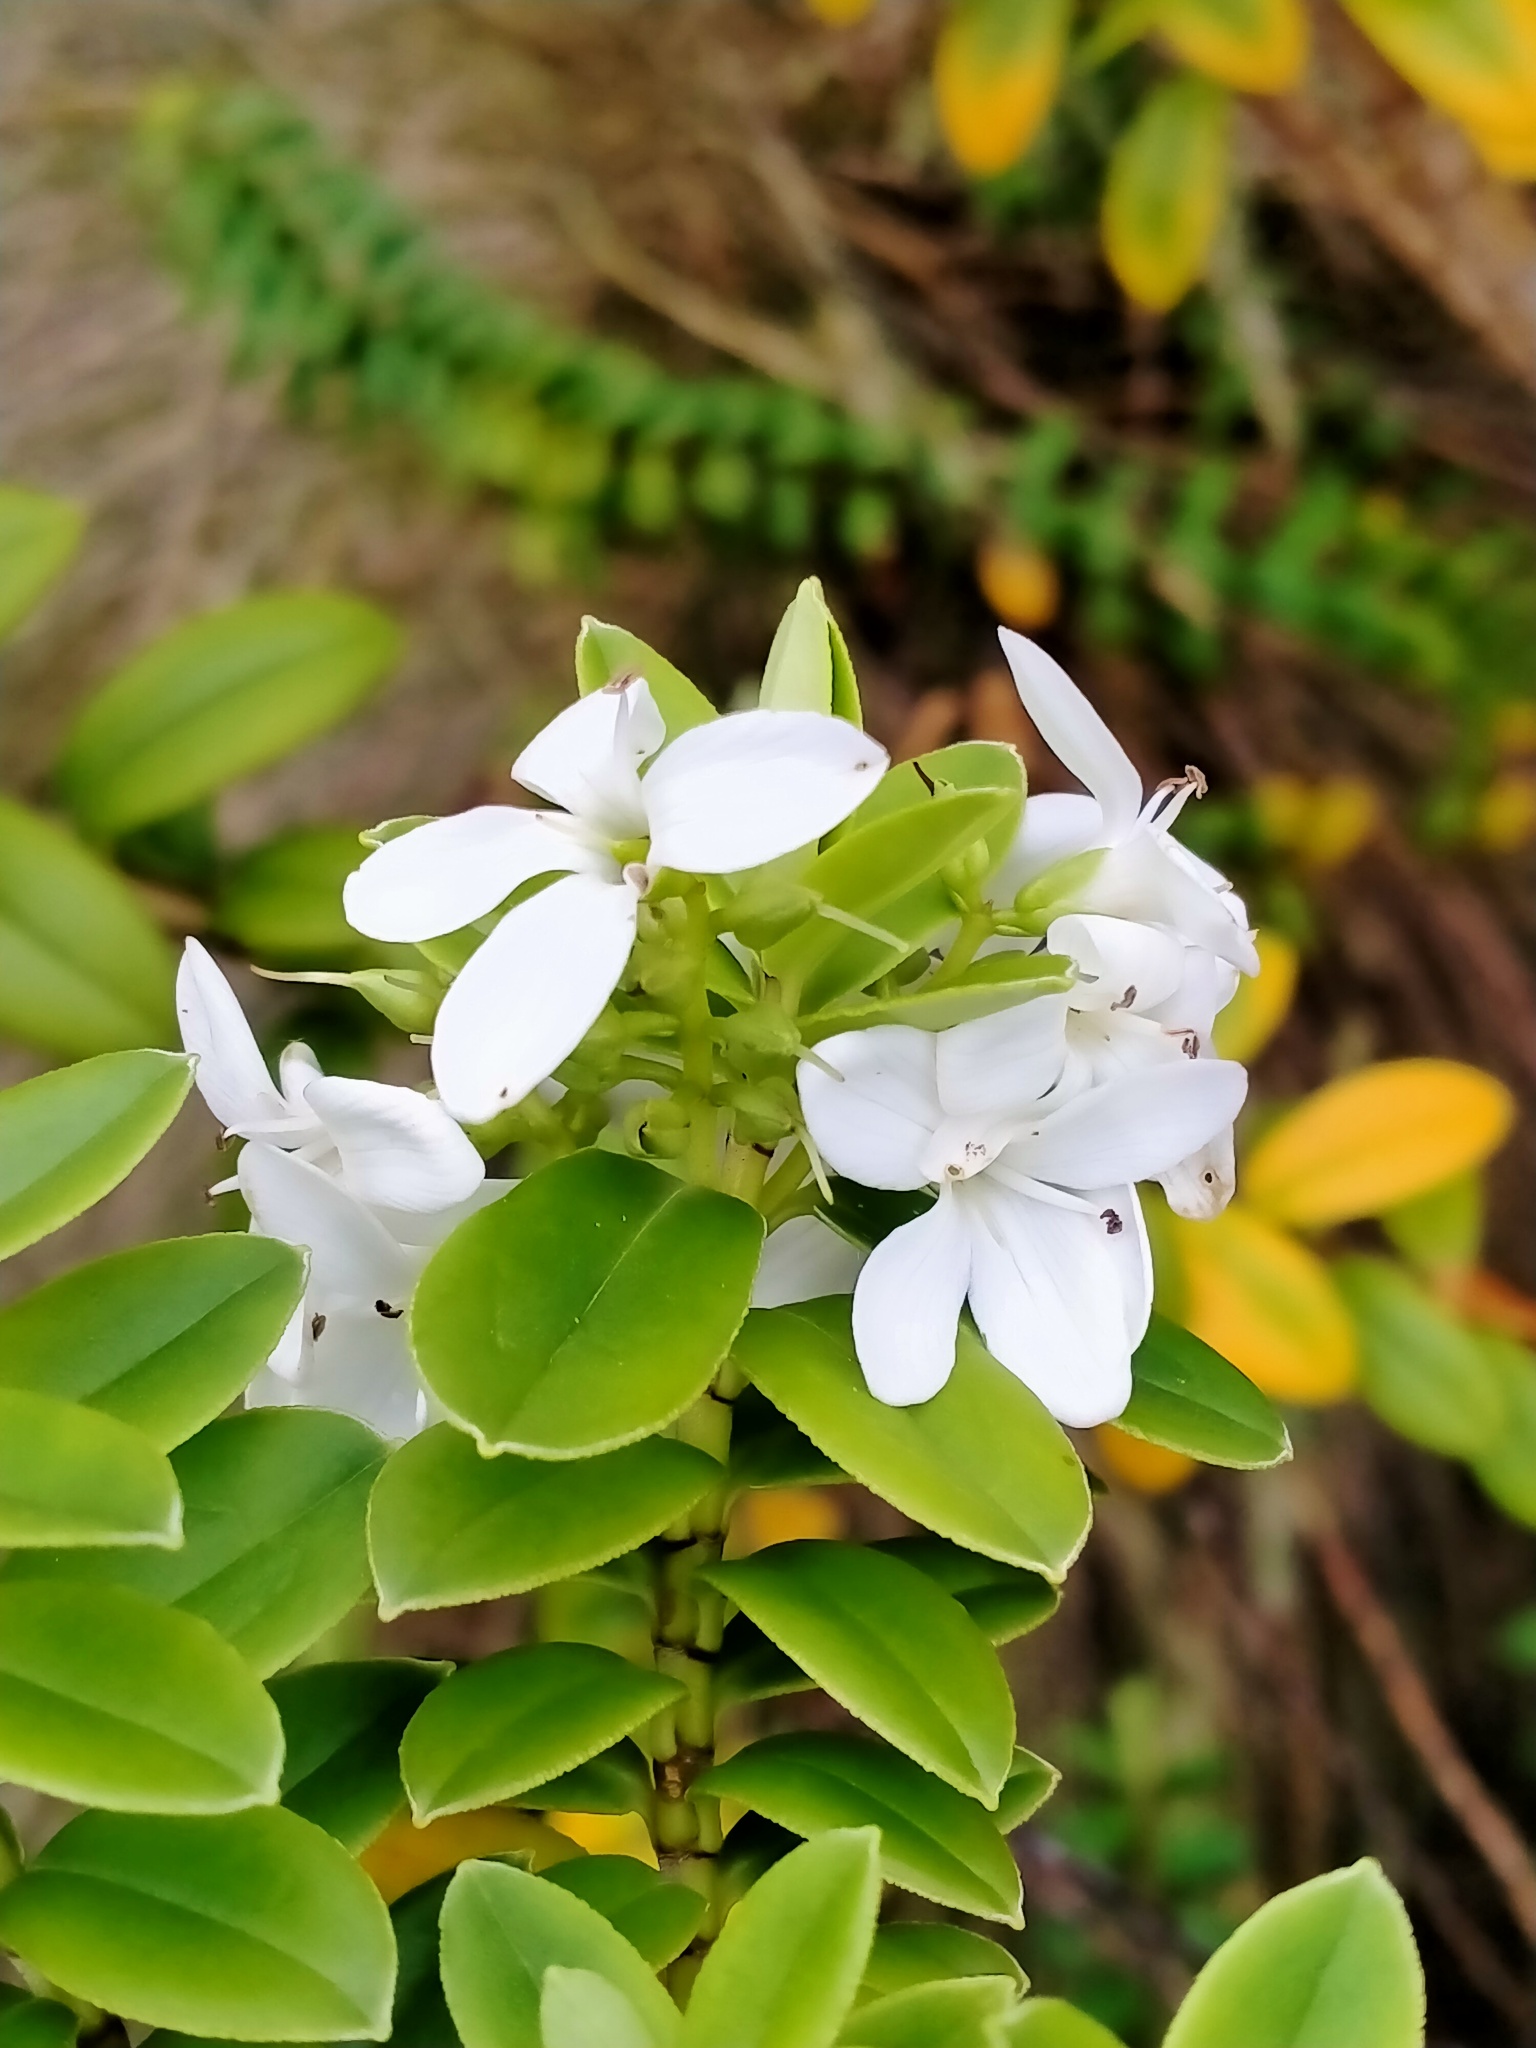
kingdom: Plantae
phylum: Tracheophyta
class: Magnoliopsida
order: Lamiales
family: Plantaginaceae
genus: Veronica
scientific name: Veronica elliptica
